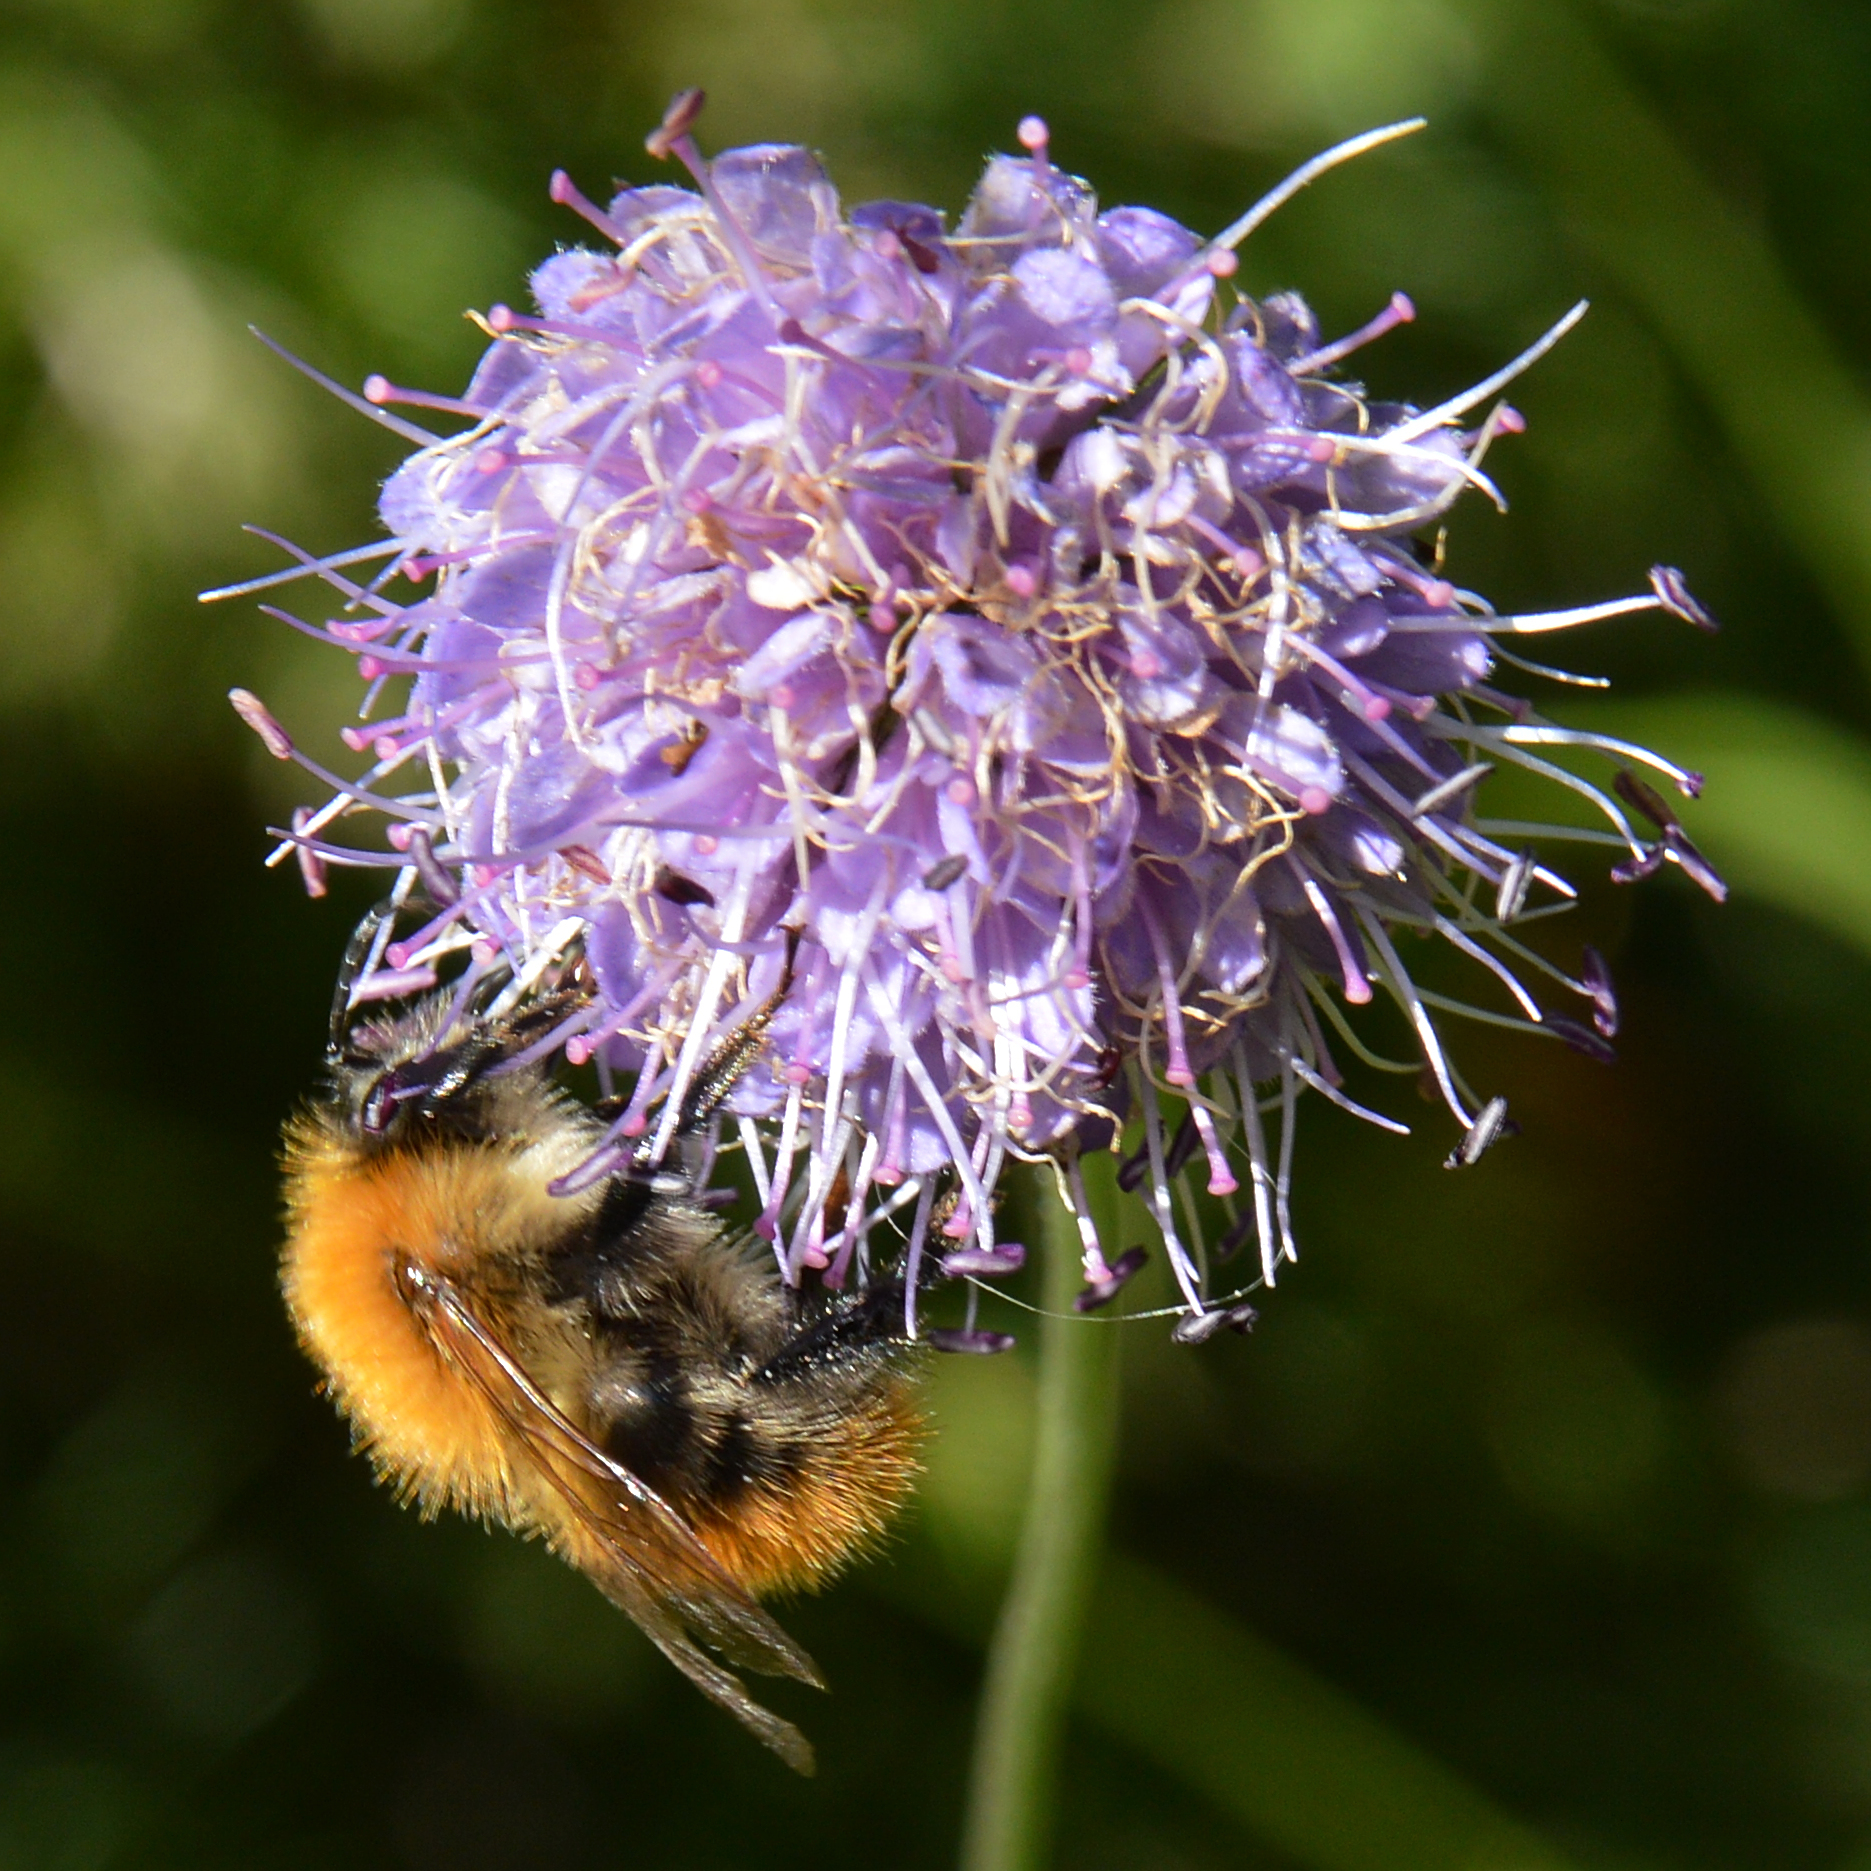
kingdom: Animalia
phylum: Arthropoda
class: Insecta
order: Hymenoptera
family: Apidae
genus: Bombus
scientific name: Bombus pascuorum
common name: Common carder bee
